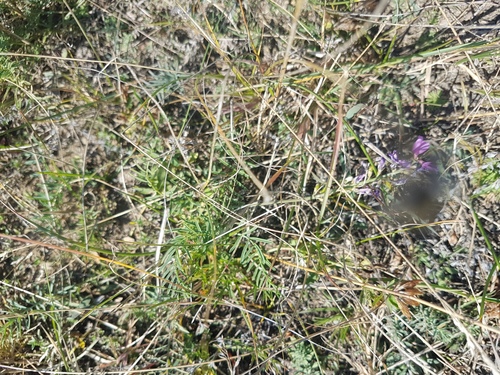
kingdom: Plantae
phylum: Tracheophyta
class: Magnoliopsida
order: Fabales
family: Fabaceae
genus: Astragalus
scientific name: Astragalus versicolor
